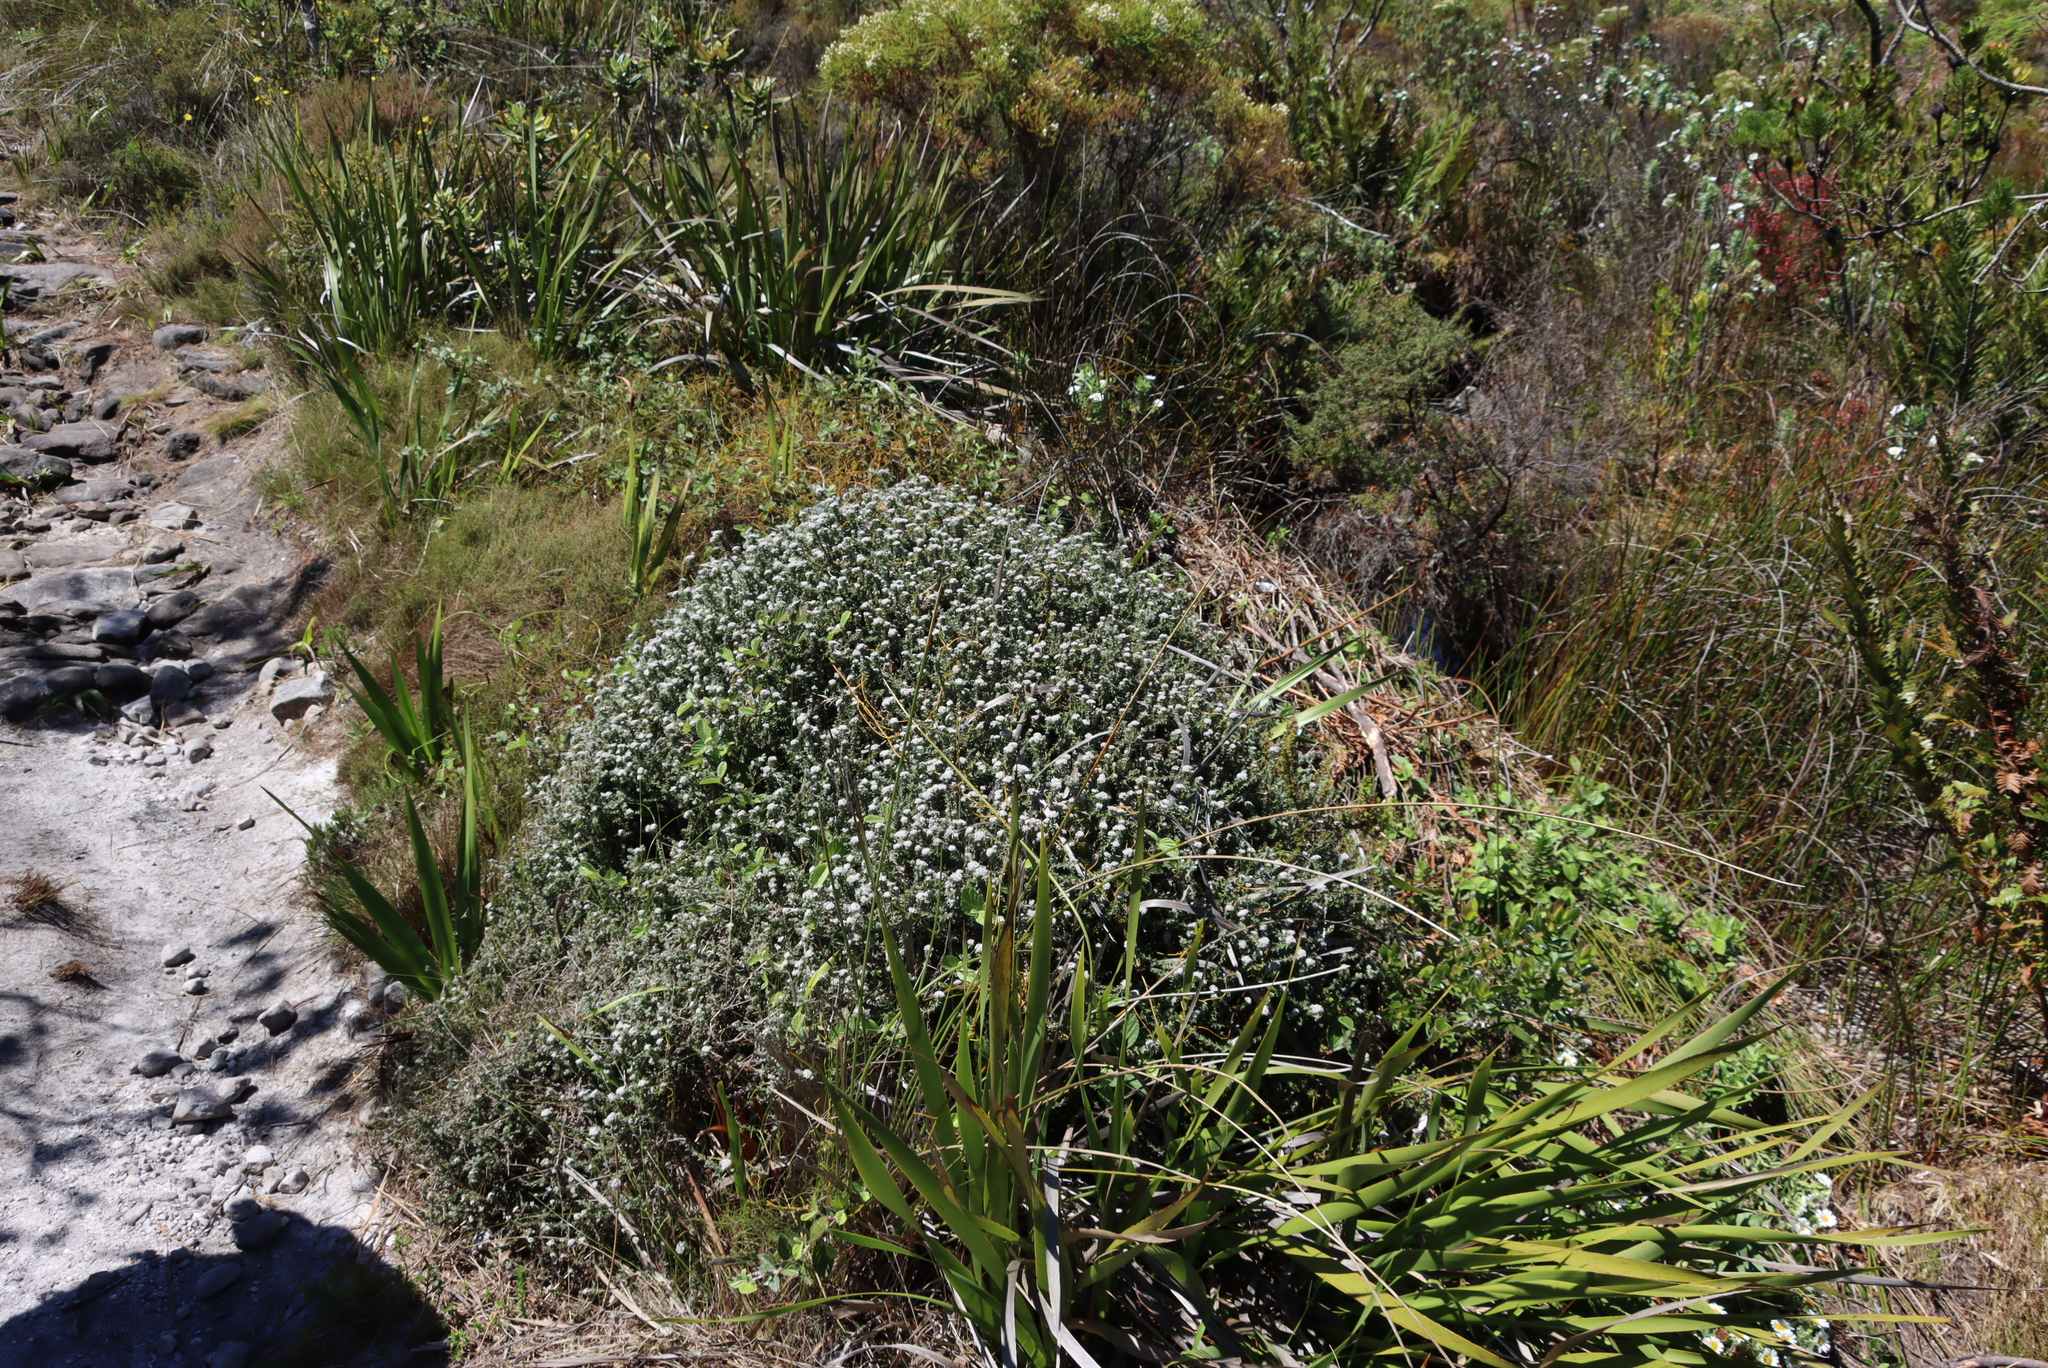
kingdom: Plantae
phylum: Tracheophyta
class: Magnoliopsida
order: Asterales
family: Asteraceae
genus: Metalasia
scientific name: Metalasia divergens
